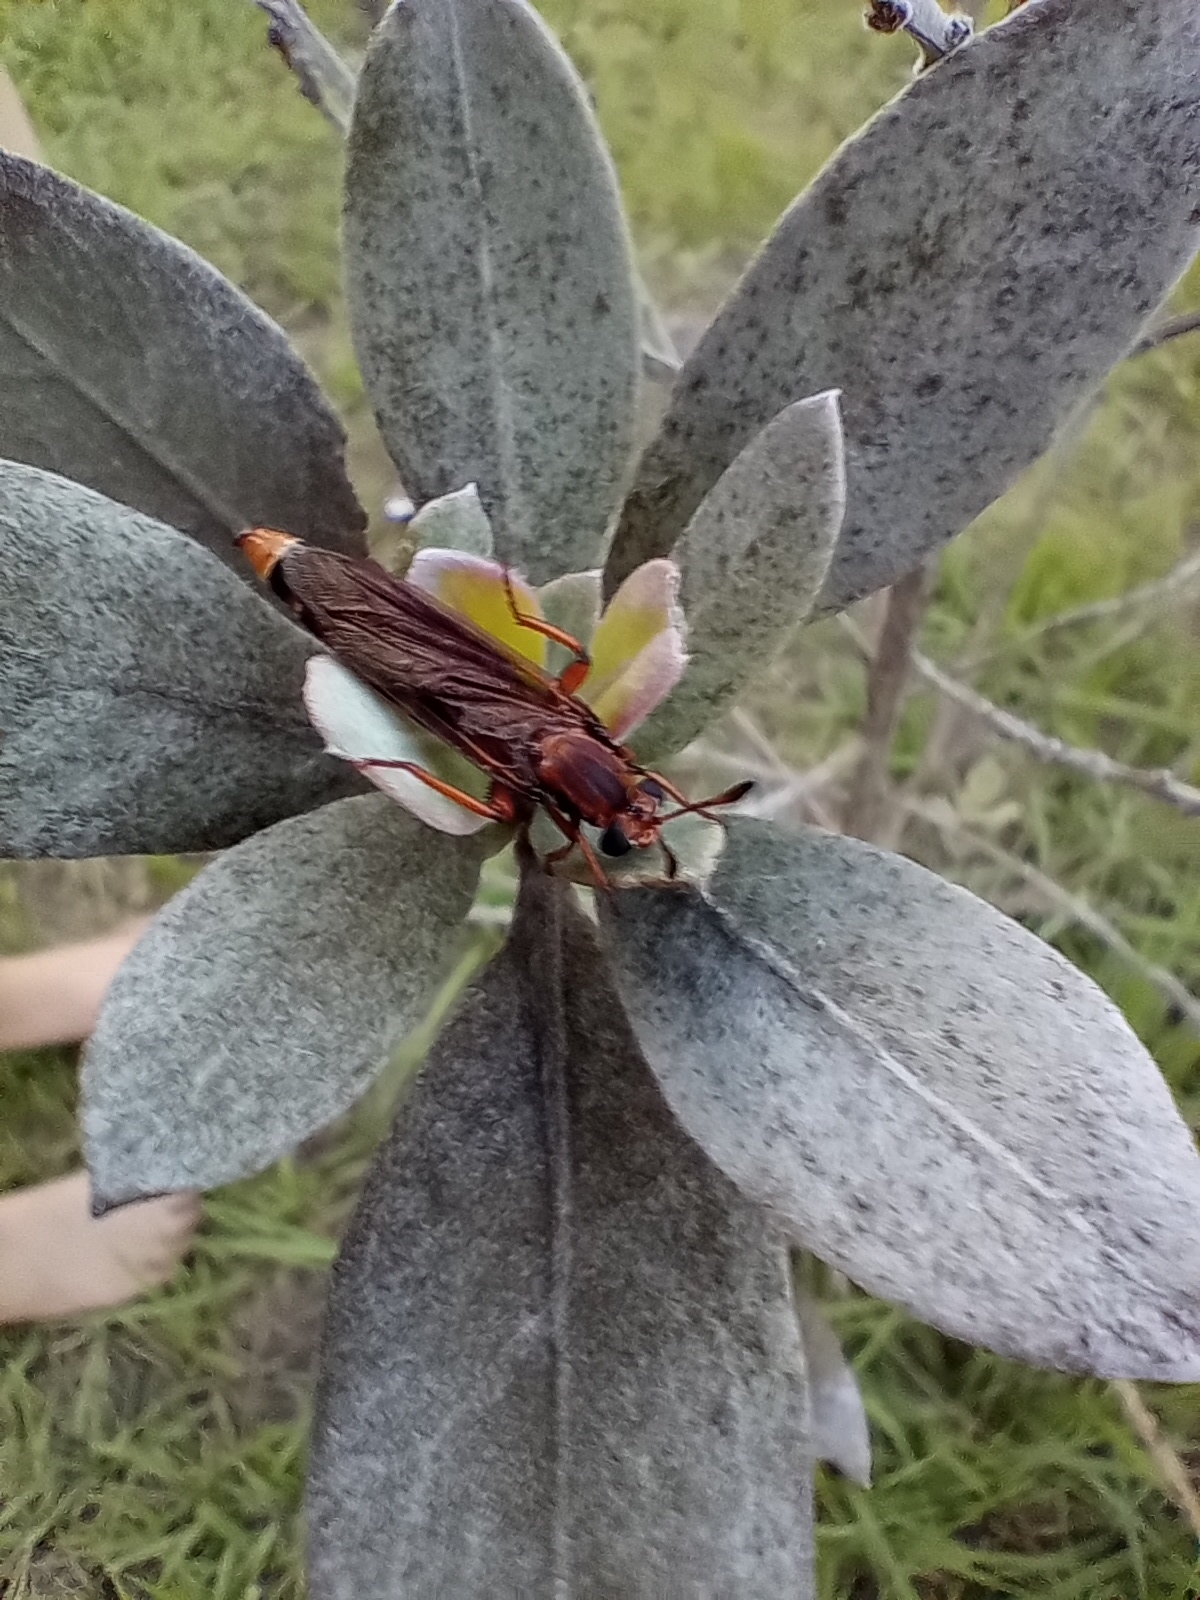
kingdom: Animalia
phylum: Arthropoda
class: Insecta
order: Diptera
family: Mydidae
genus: Phyllomydas
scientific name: Phyllomydas parvulus
